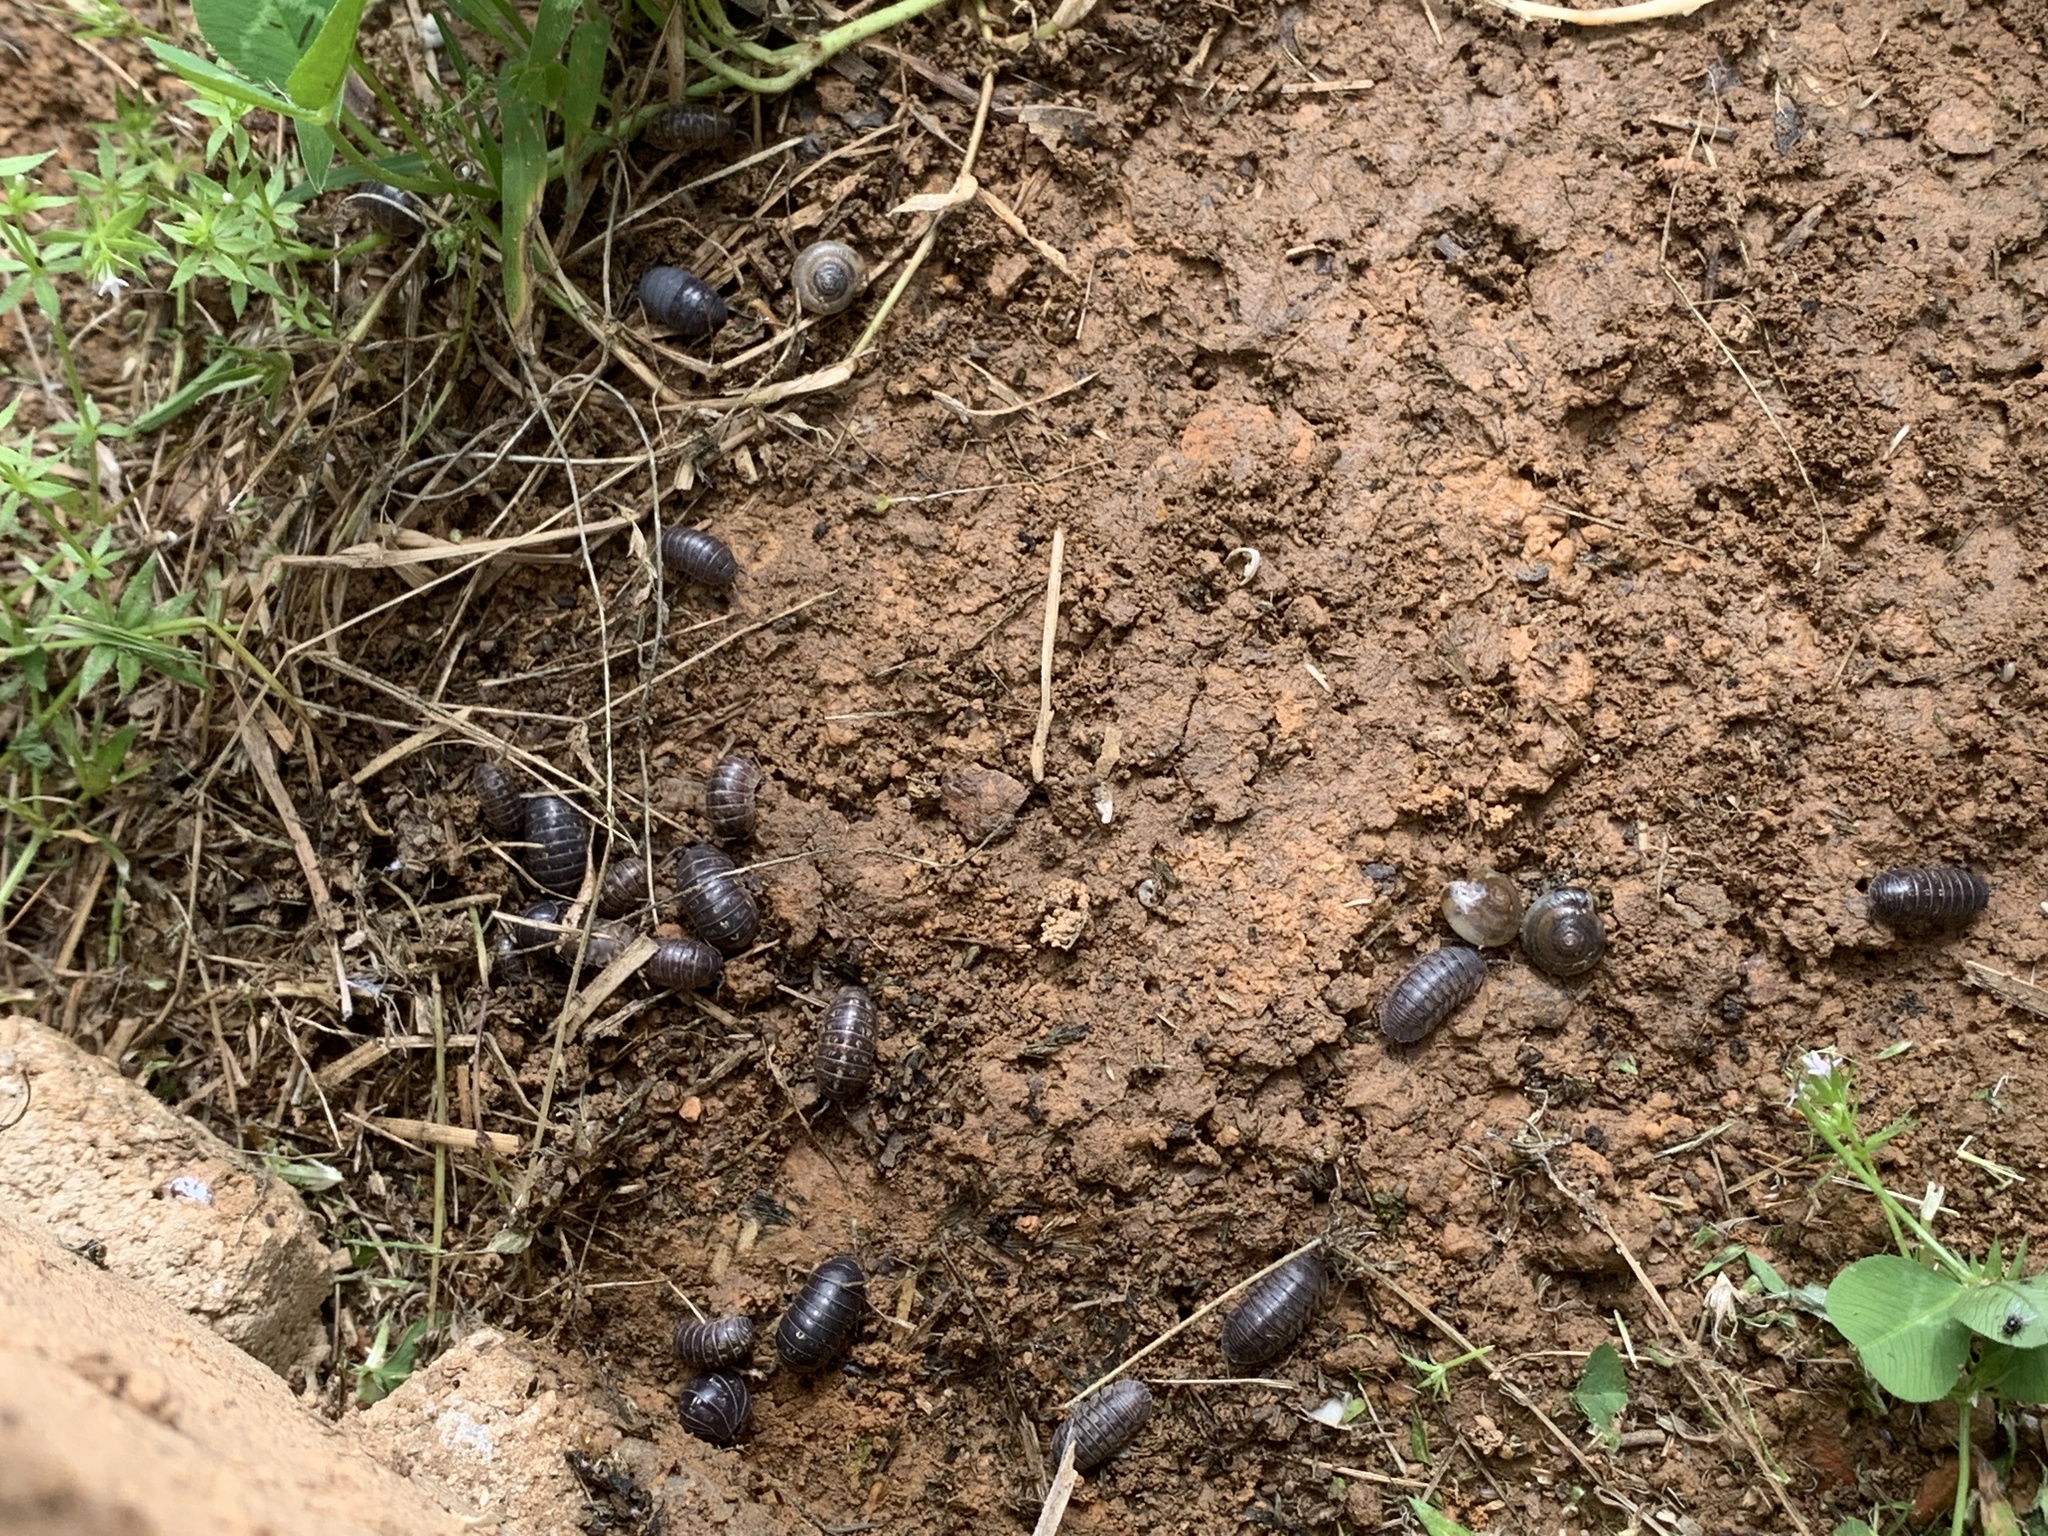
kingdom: Animalia
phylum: Arthropoda
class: Malacostraca
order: Isopoda
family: Armadillidiidae
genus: Armadillidium
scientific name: Armadillidium nasatum
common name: Isopod
